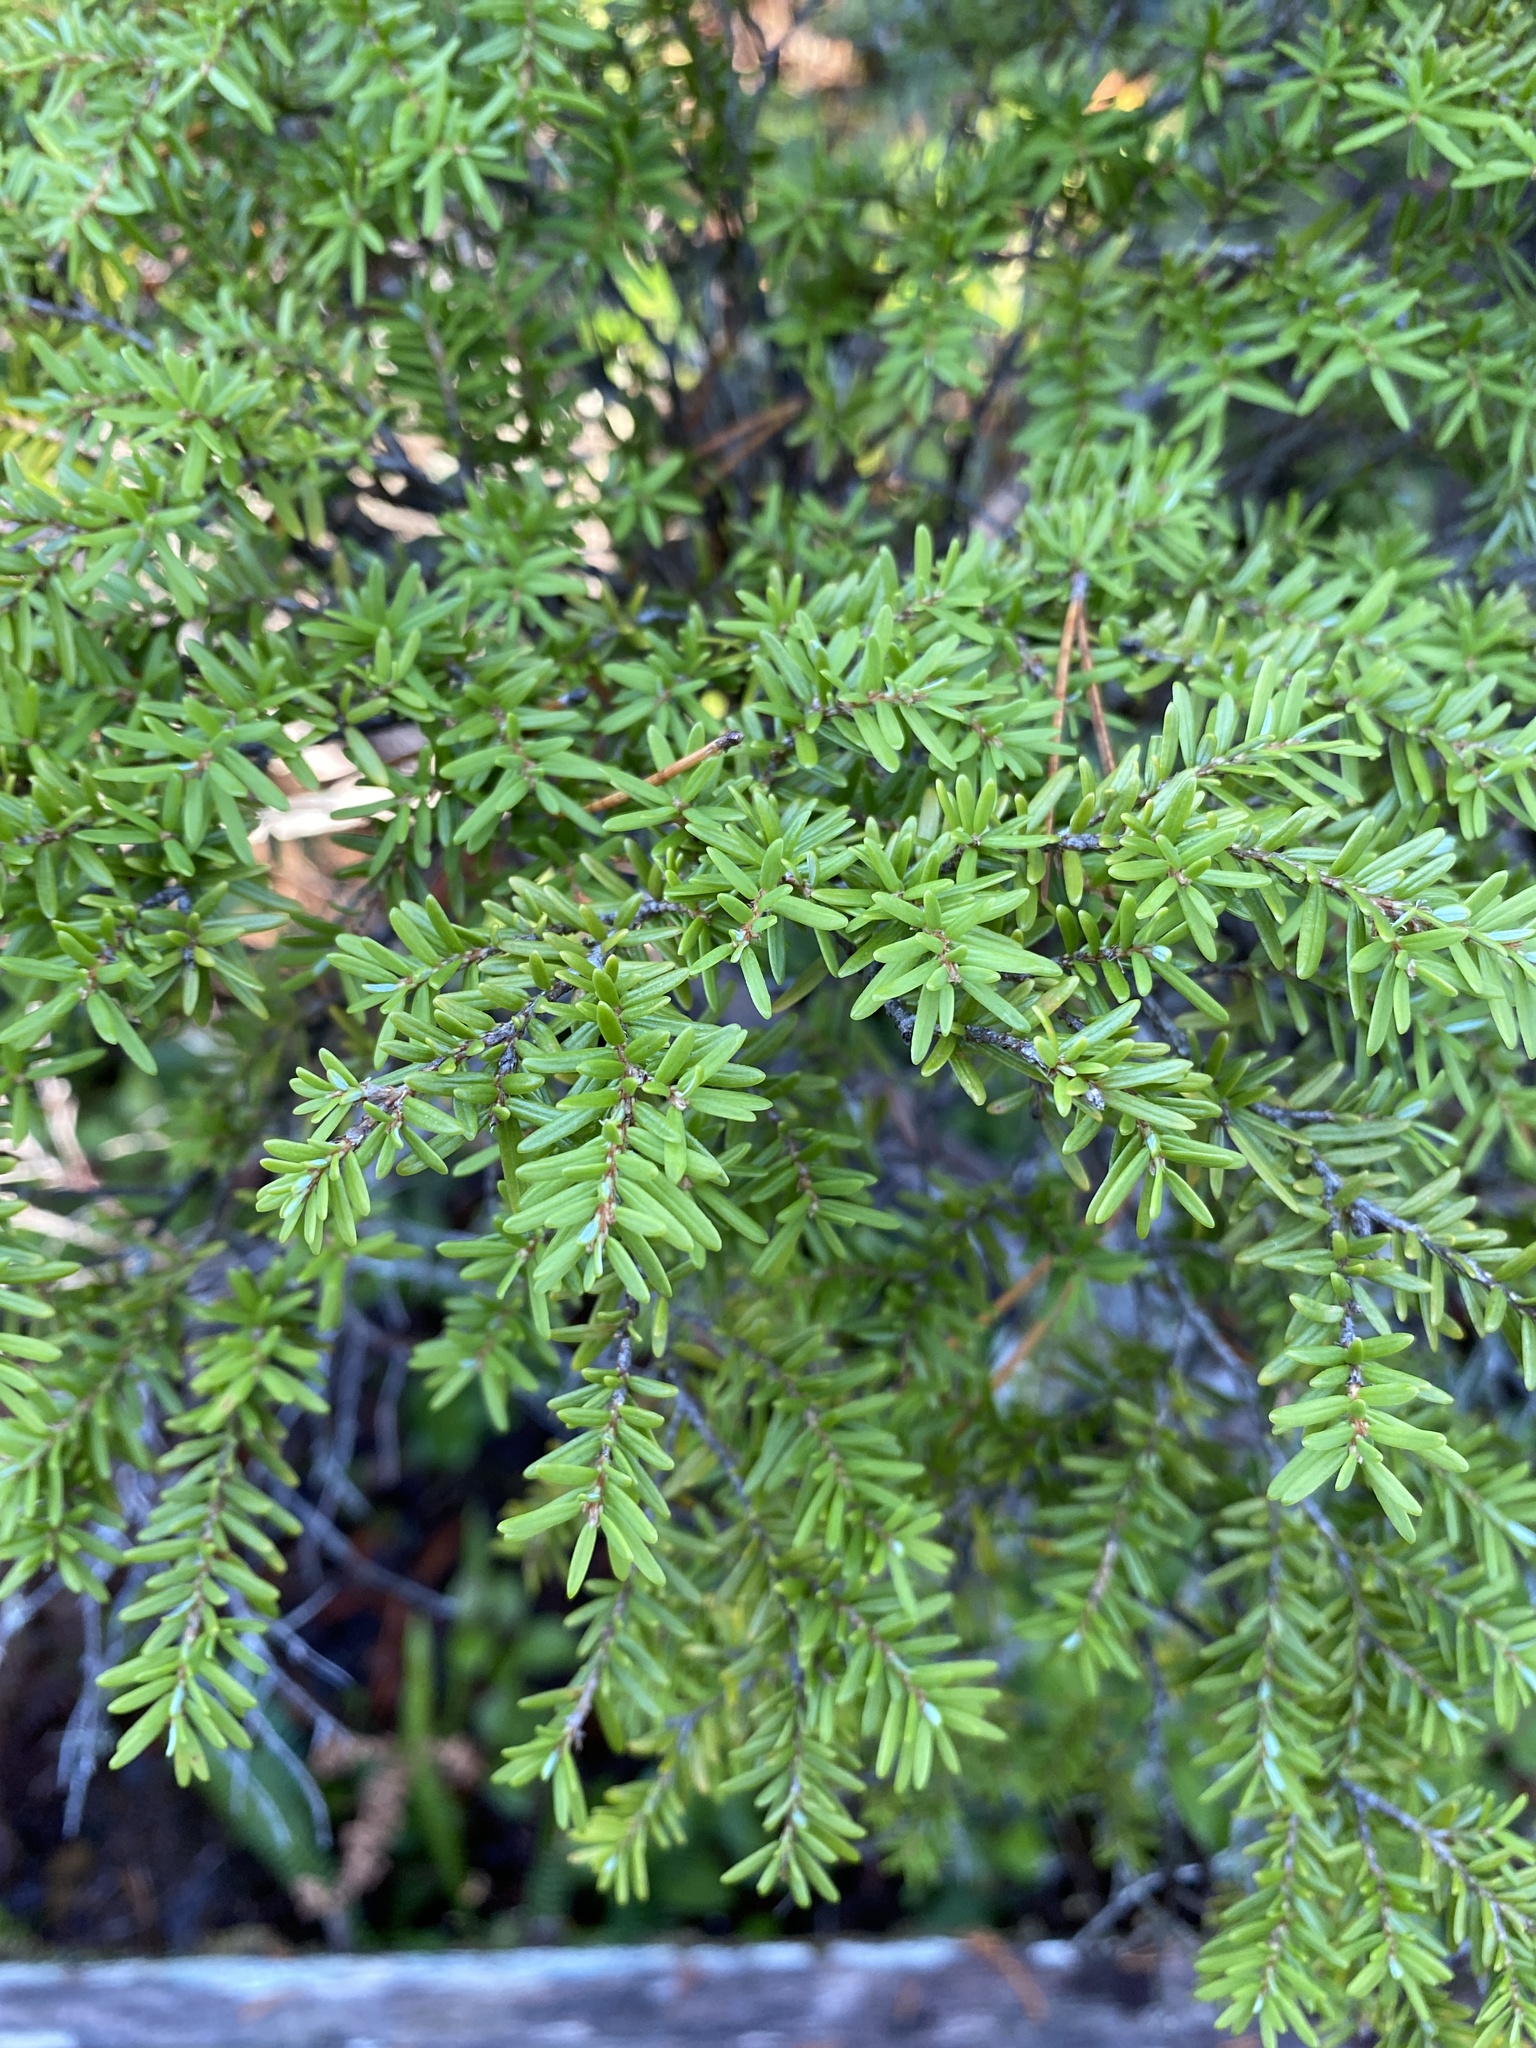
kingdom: Plantae
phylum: Tracheophyta
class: Pinopsida
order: Pinales
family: Pinaceae
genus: Tsuga
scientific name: Tsuga heterophylla
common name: Western hemlock
